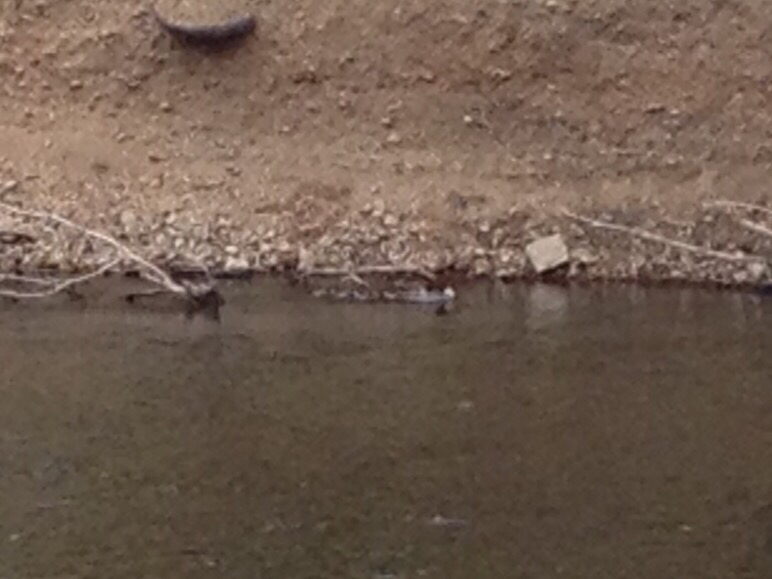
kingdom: Animalia
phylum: Chordata
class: Aves
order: Anseriformes
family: Anatidae
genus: Mergus
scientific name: Mergus merganser
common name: Common merganser
